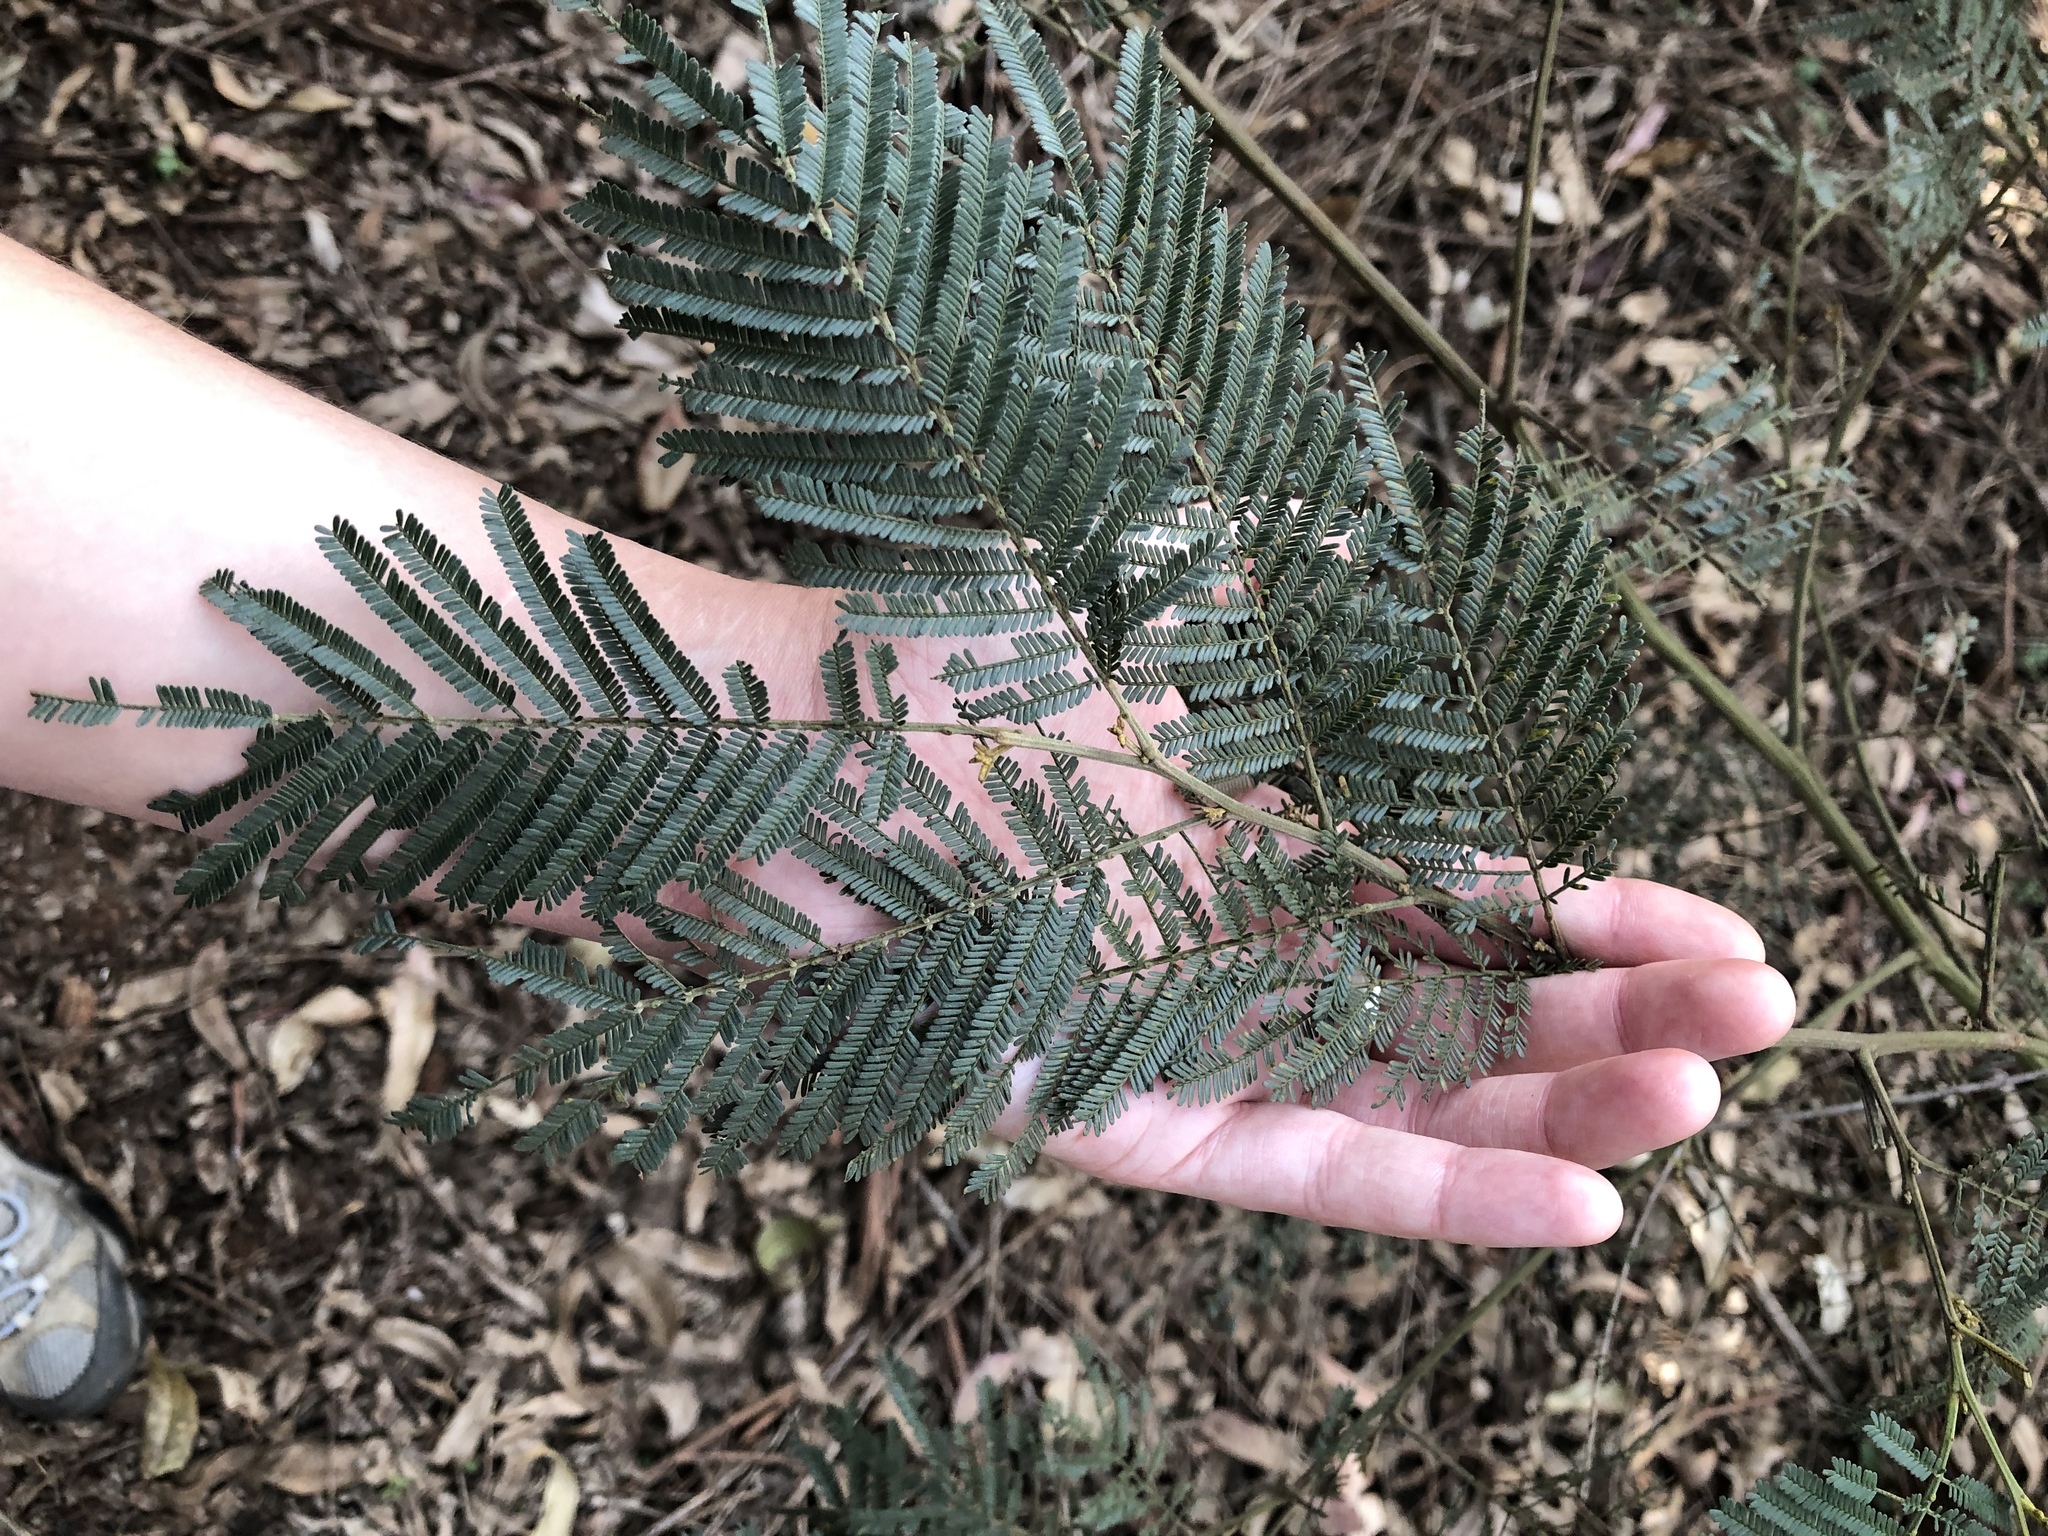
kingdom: Plantae
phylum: Tracheophyta
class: Magnoliopsida
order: Fabales
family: Fabaceae
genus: Acacia
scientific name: Acacia mearnsii
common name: Black wattle
